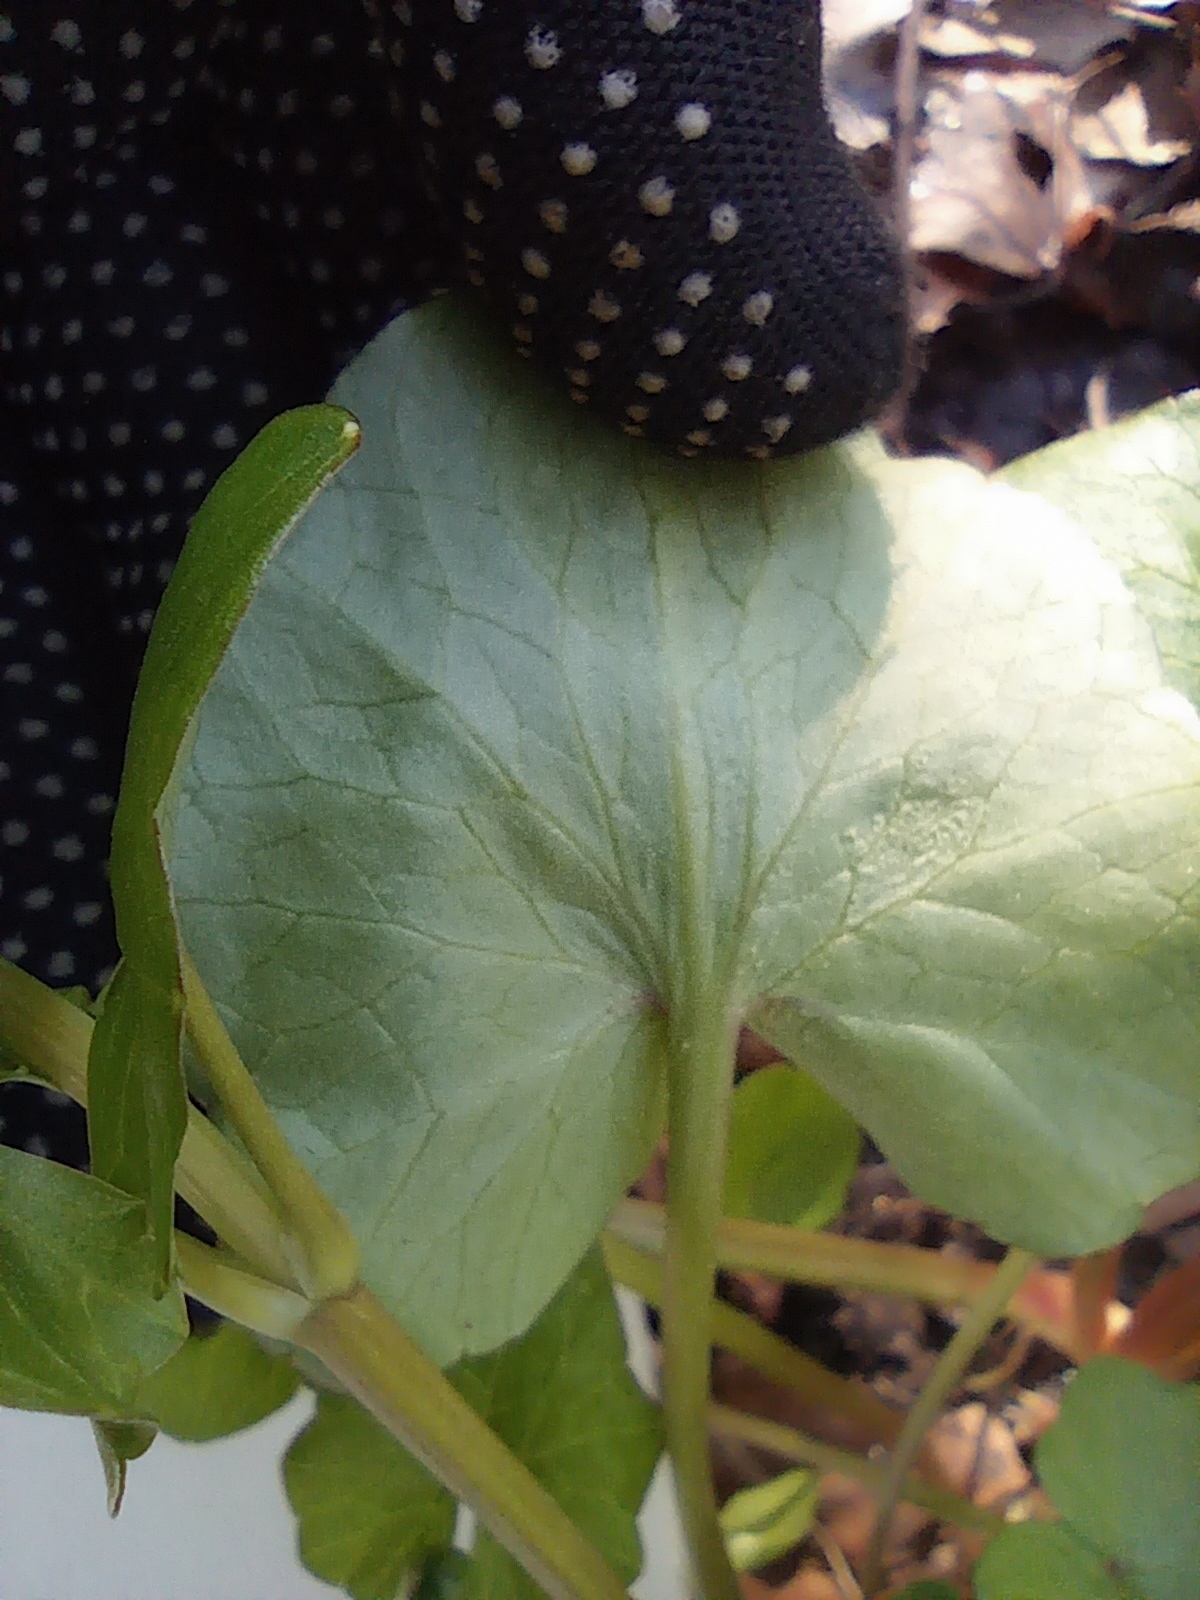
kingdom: Plantae
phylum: Tracheophyta
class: Magnoliopsida
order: Ranunculales
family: Ranunculaceae
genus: Ficaria
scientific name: Ficaria verna
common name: Lesser celandine
